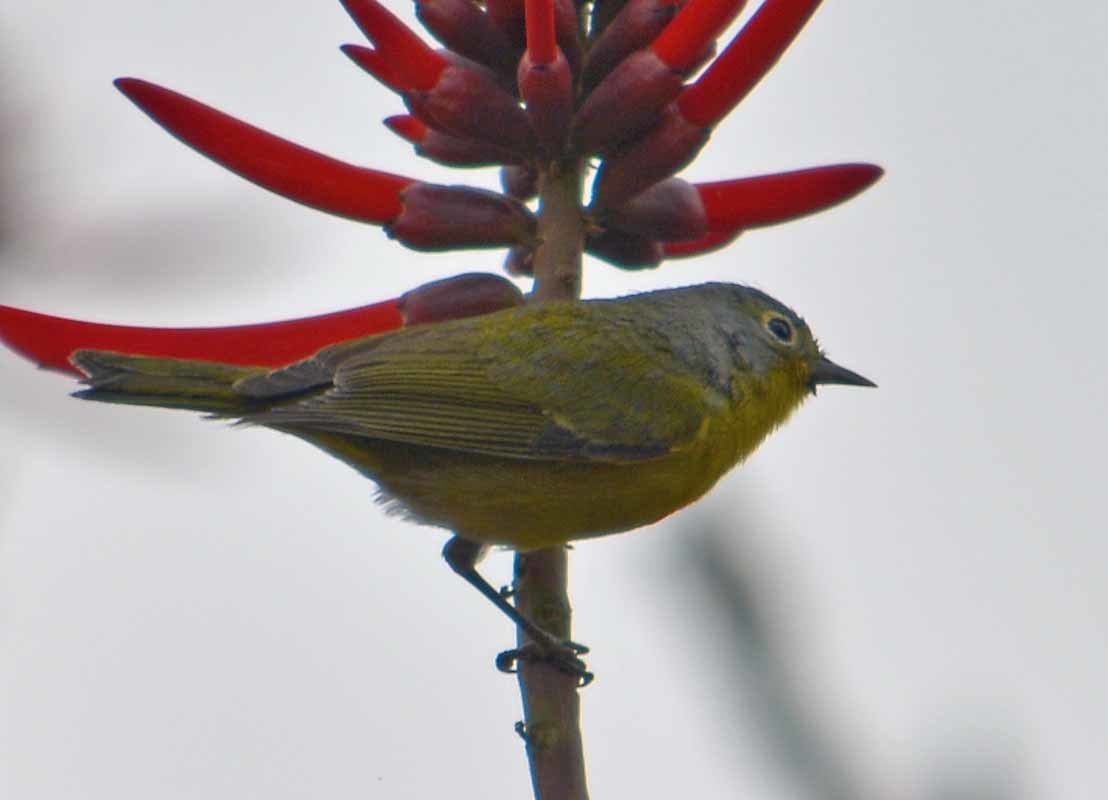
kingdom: Animalia
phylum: Chordata
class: Aves
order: Passeriformes
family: Parulidae
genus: Leiothlypis
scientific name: Leiothlypis ruficapilla
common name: Nashville warbler
